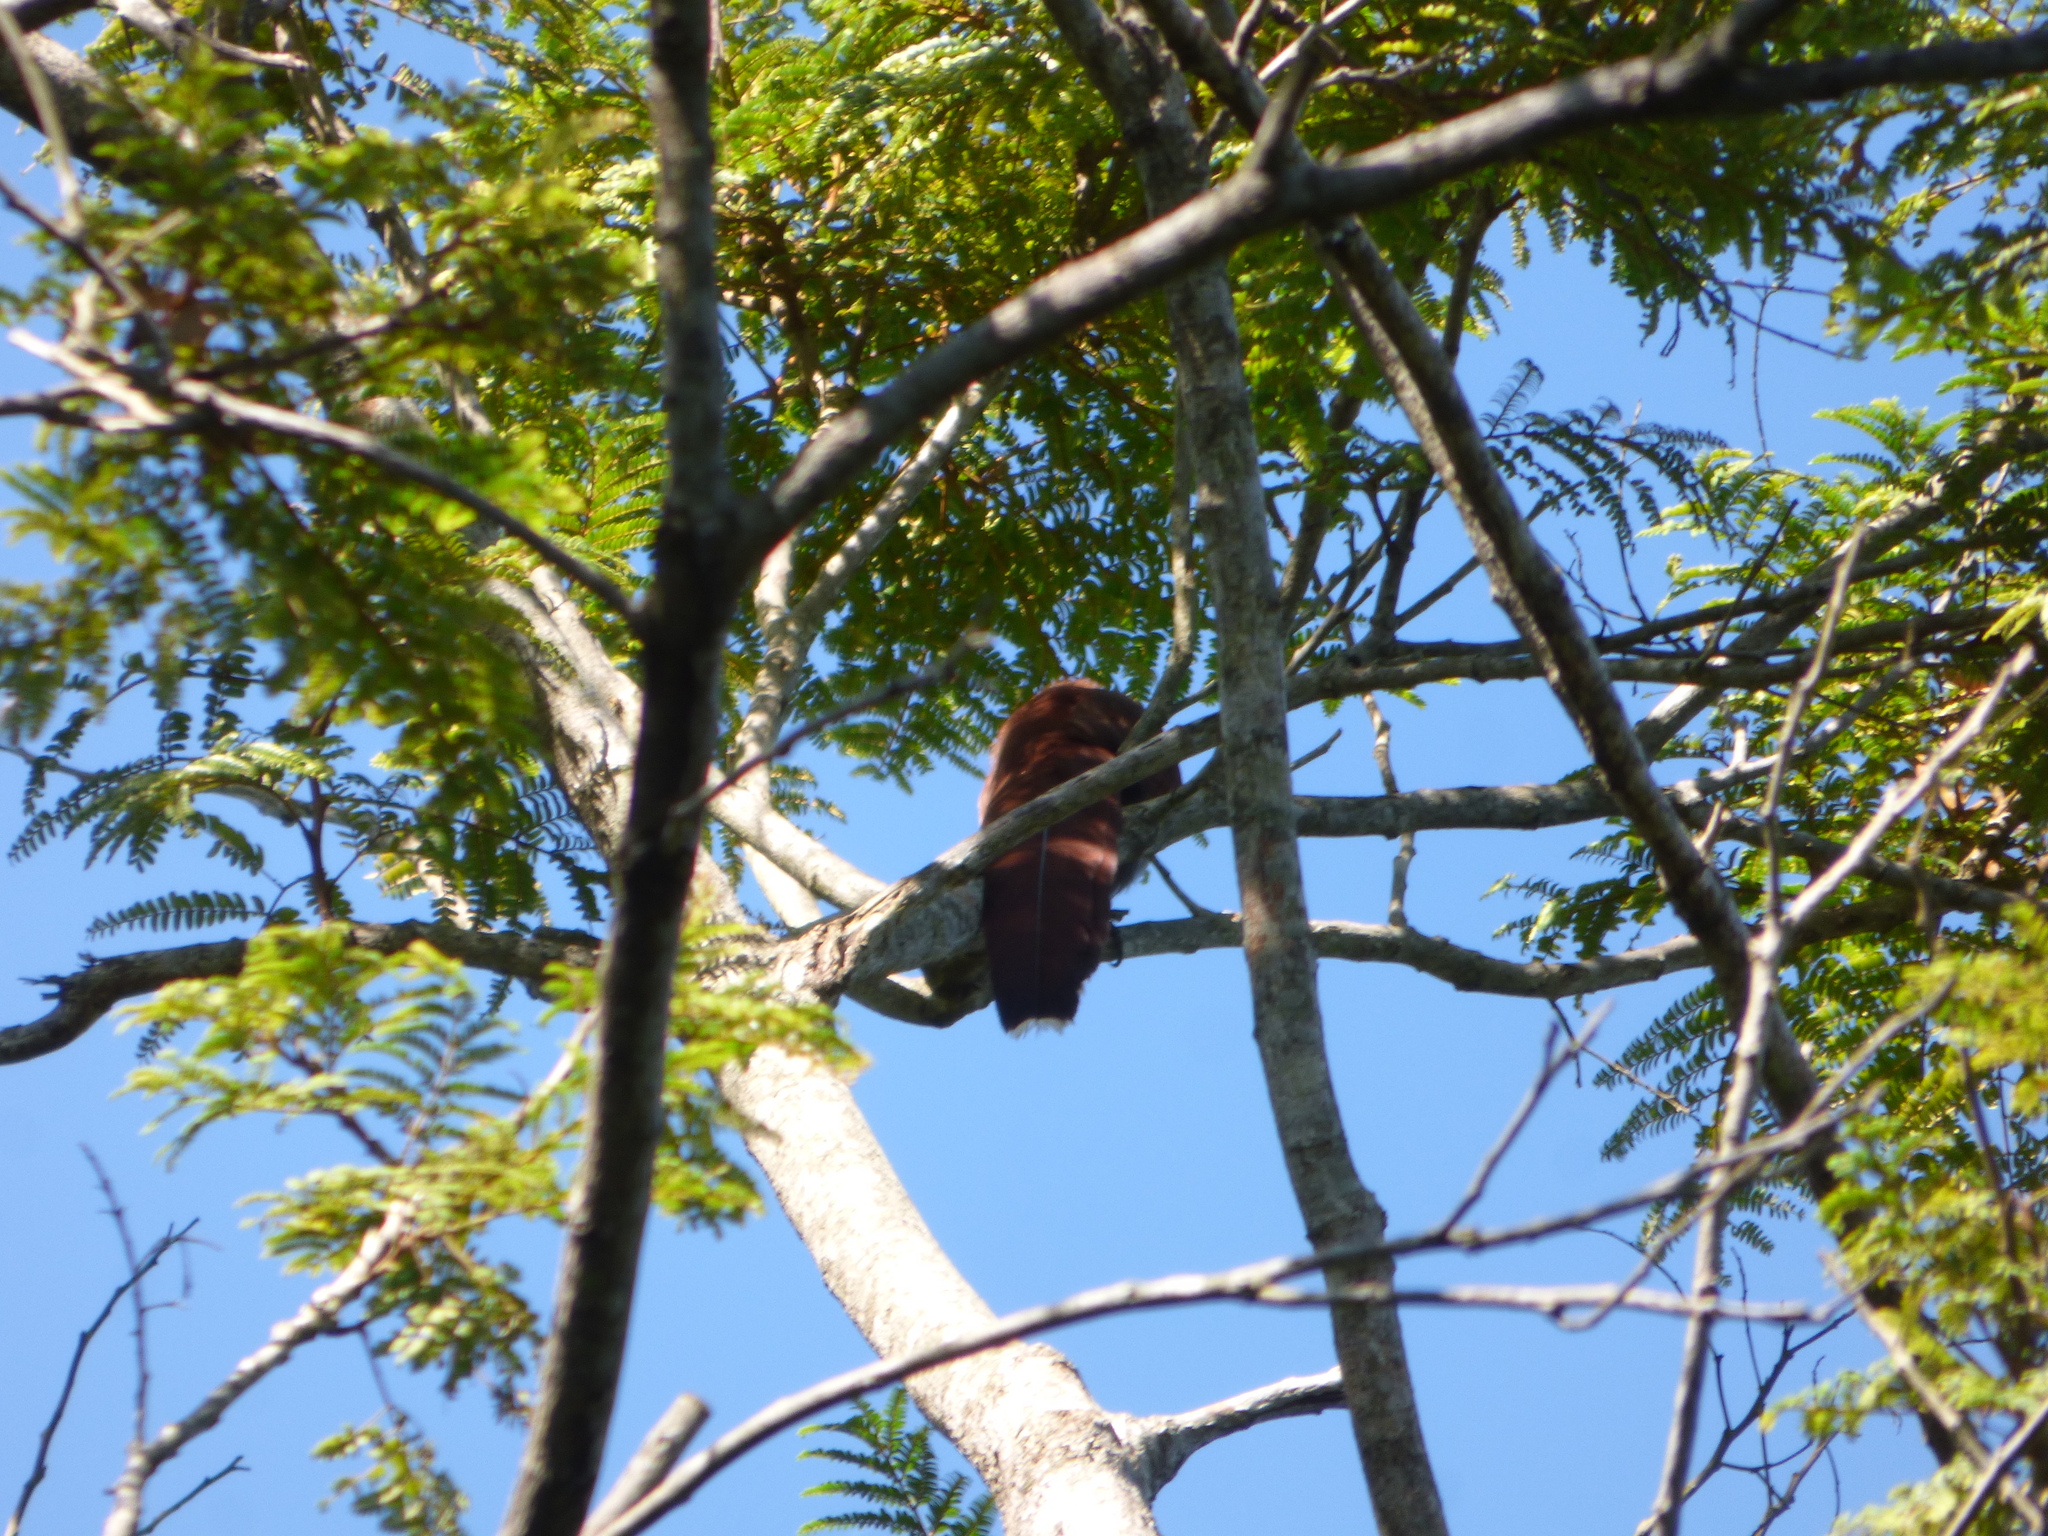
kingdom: Animalia
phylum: Chordata
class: Aves
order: Cuculiformes
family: Cuculidae
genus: Piaya
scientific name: Piaya cayana
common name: Squirrel cuckoo
